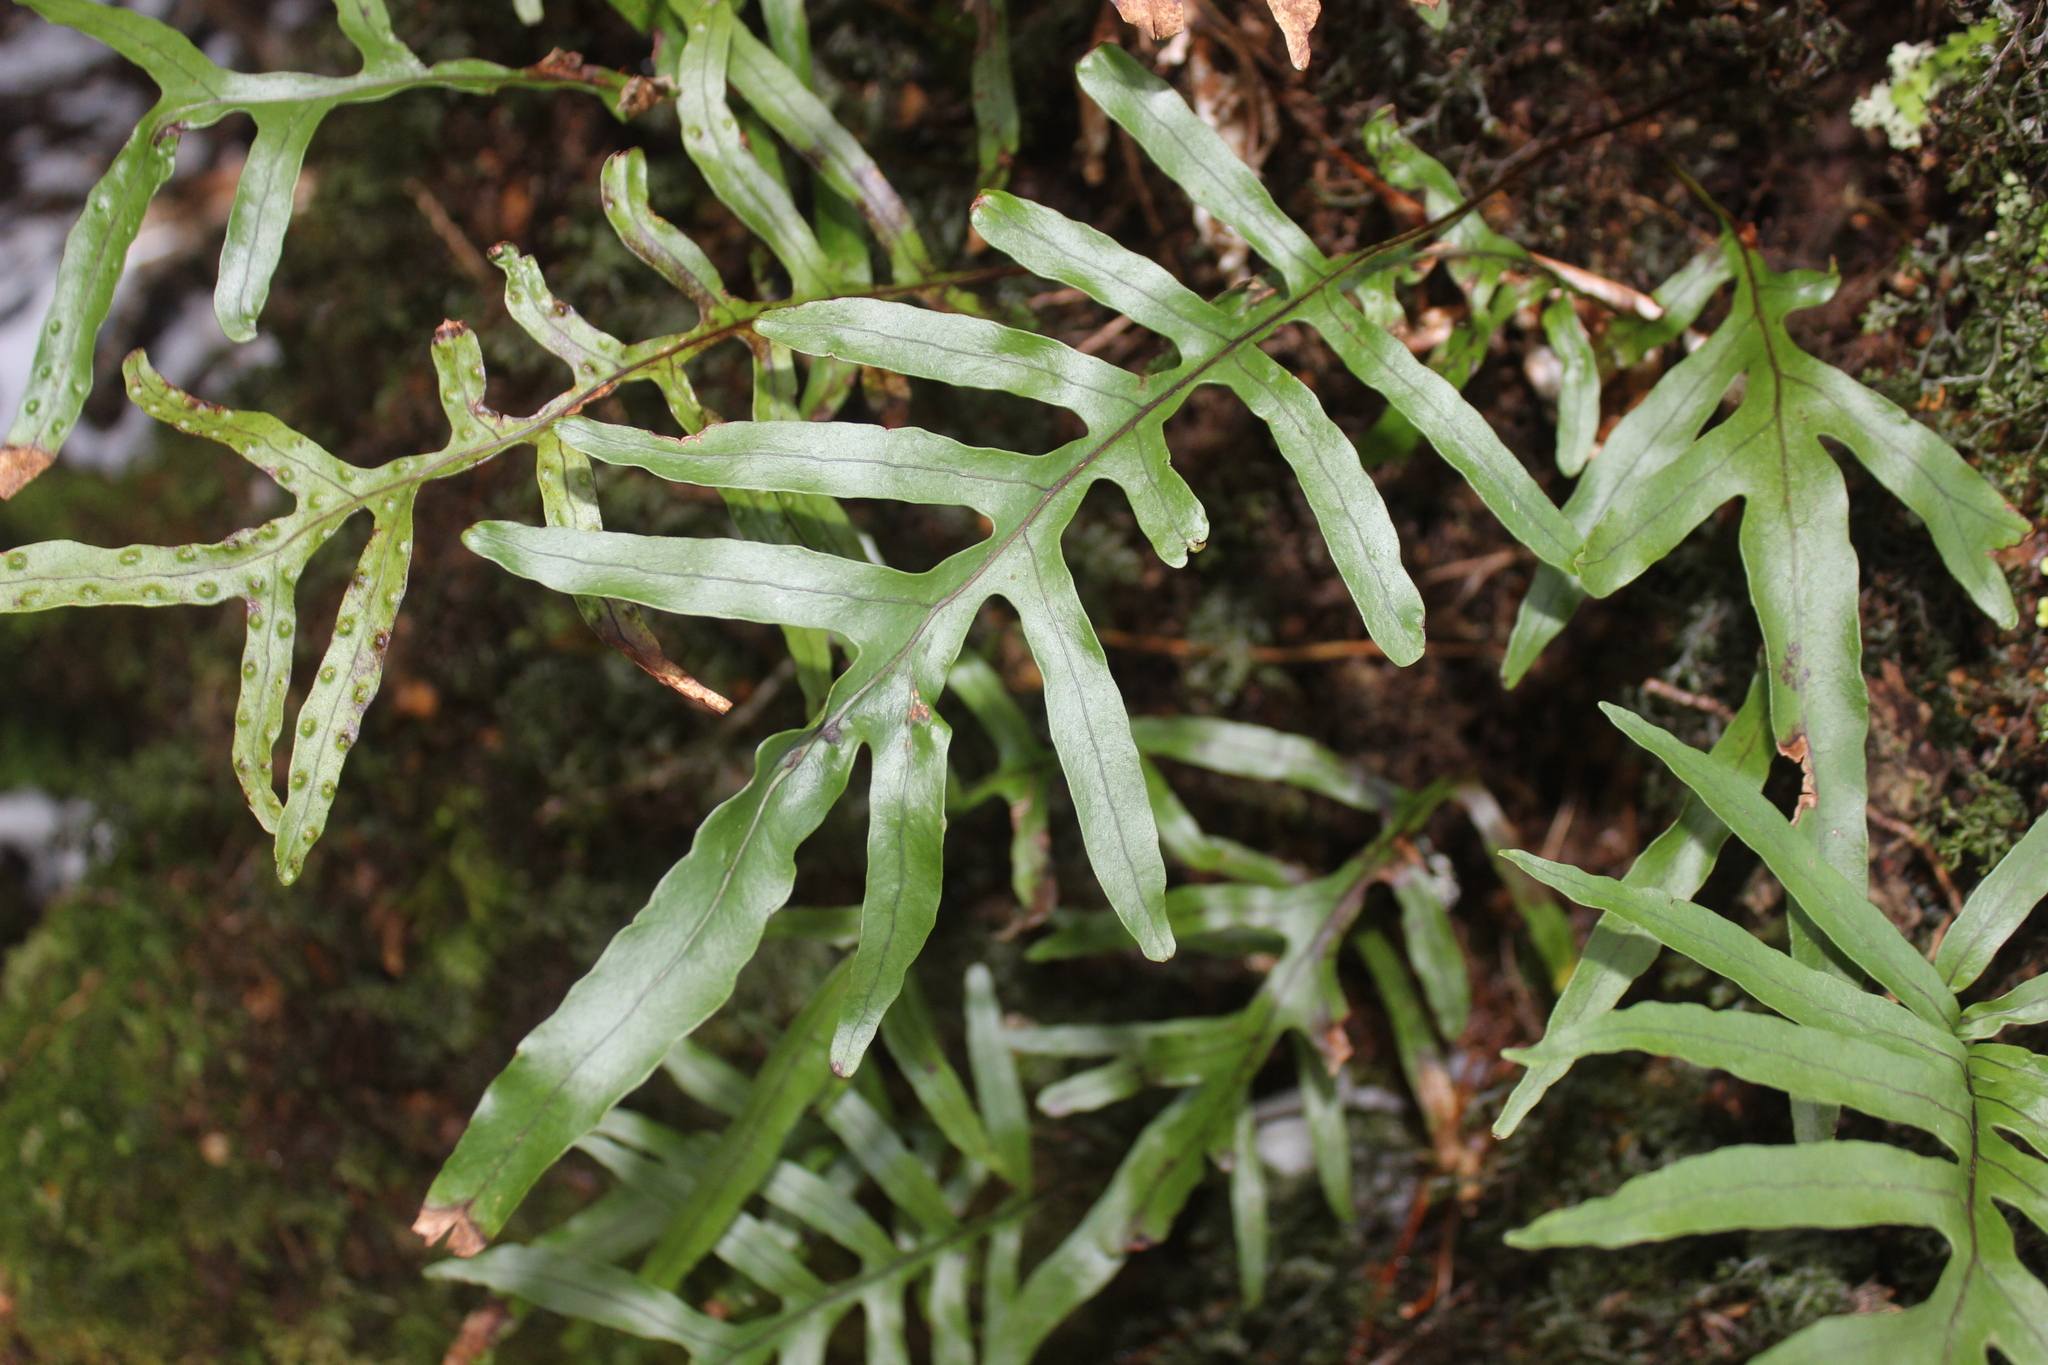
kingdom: Plantae
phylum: Tracheophyta
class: Polypodiopsida
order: Polypodiales
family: Polypodiaceae
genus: Lecanopteris
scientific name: Lecanopteris novae-zealandiae
